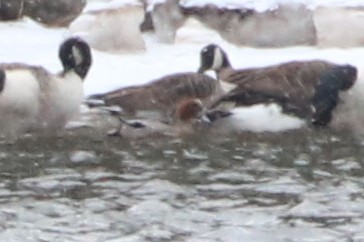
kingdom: Animalia
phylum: Chordata
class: Aves
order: Anseriformes
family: Anatidae
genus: Mareca
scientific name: Mareca penelope
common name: Eurasian wigeon
